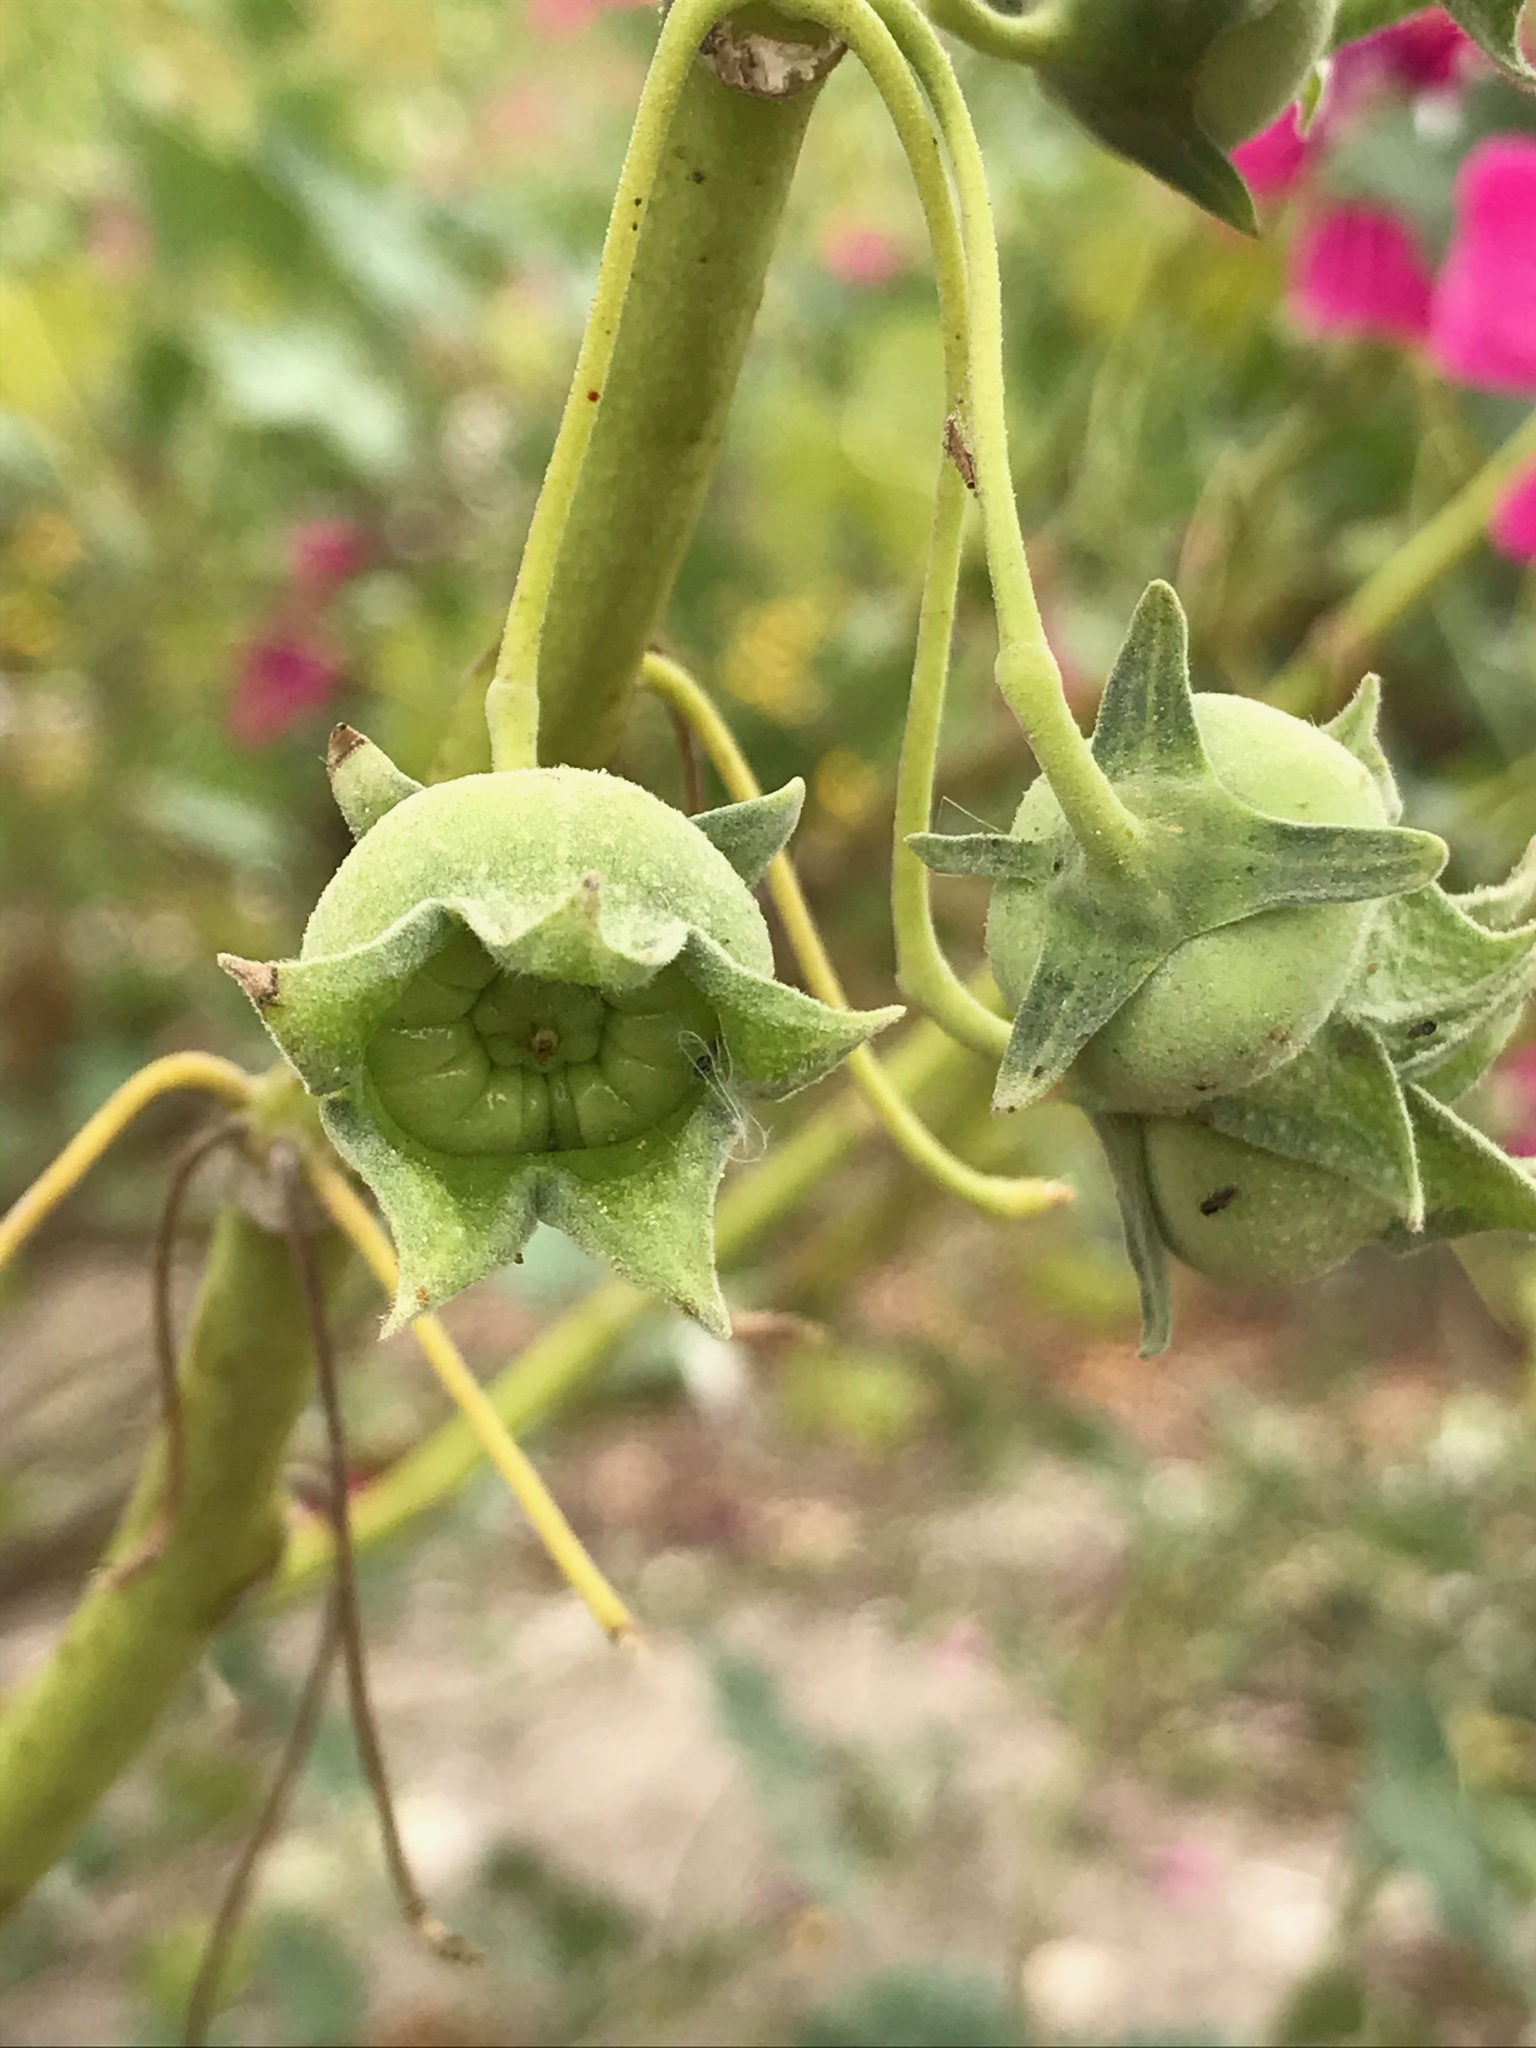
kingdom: Plantae
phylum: Tracheophyta
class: Magnoliopsida
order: Malvales
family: Malvaceae
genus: Malva
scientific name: Malva assurgentiflora
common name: Island mallow
